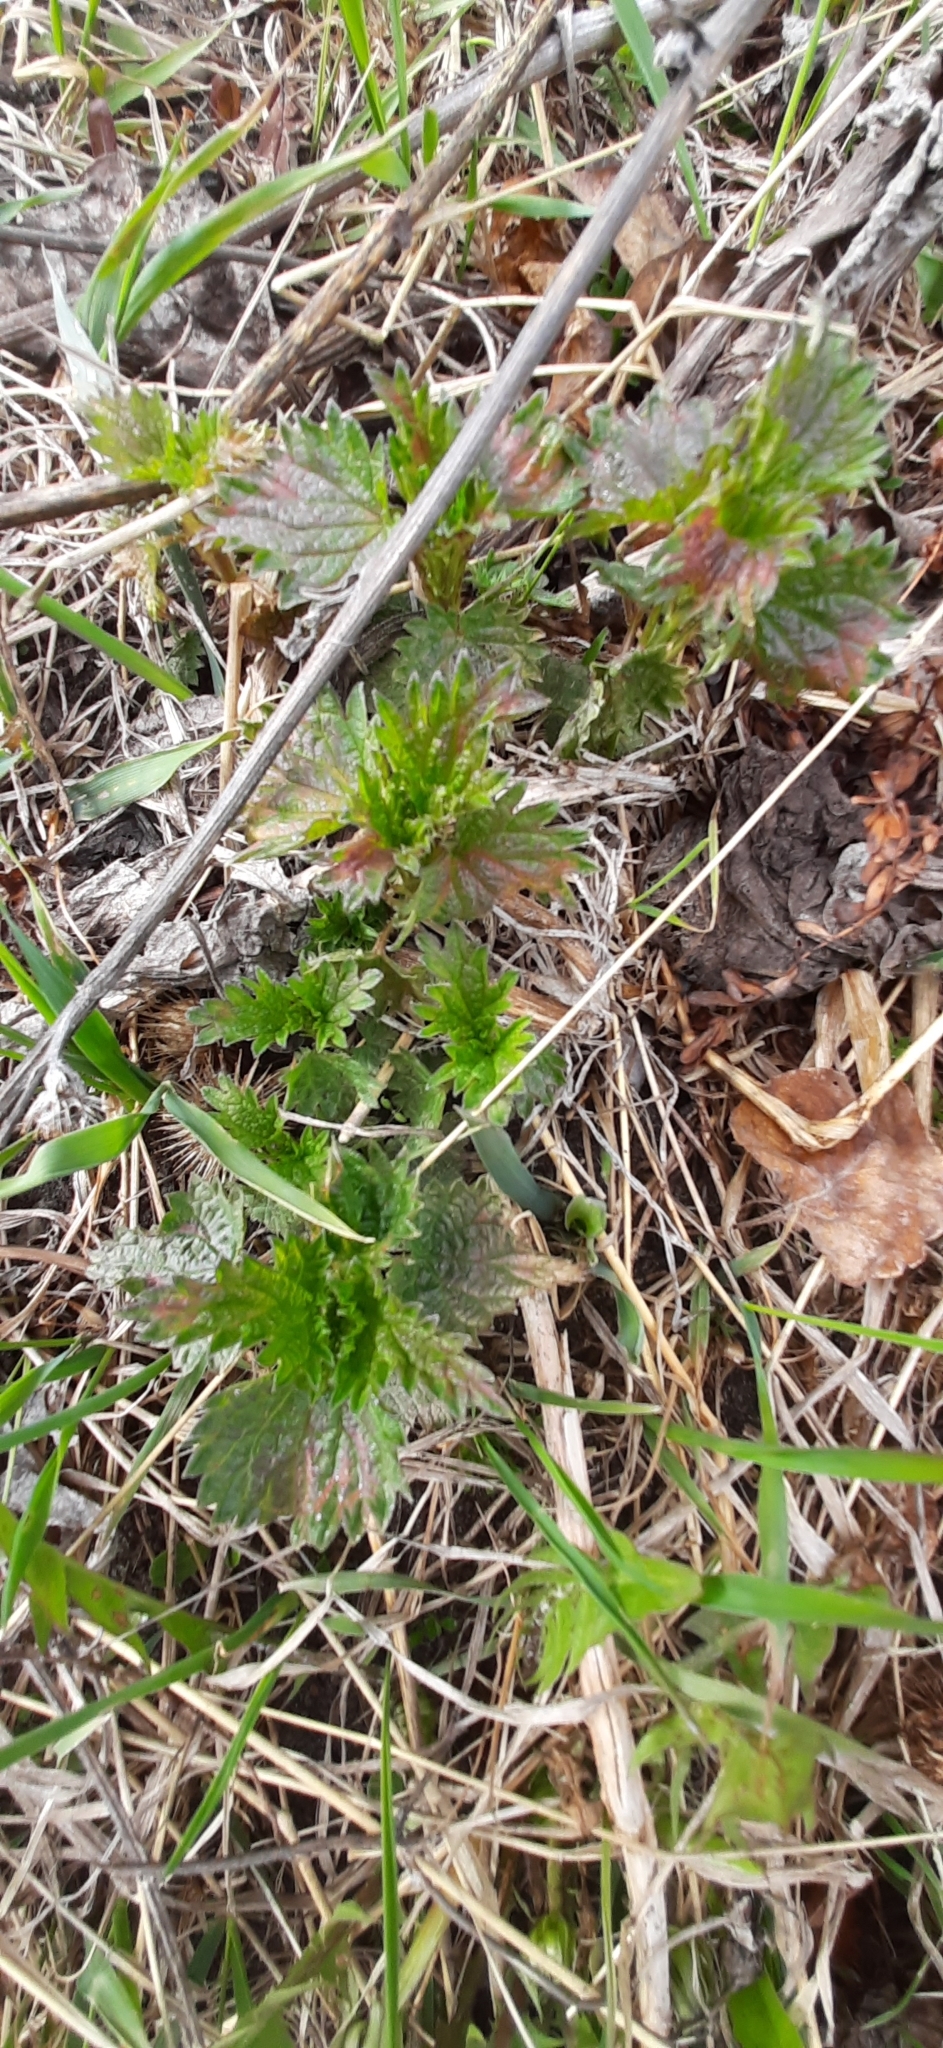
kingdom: Plantae
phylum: Tracheophyta
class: Magnoliopsida
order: Rosales
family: Urticaceae
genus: Urtica
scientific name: Urtica dioica
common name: Common nettle
